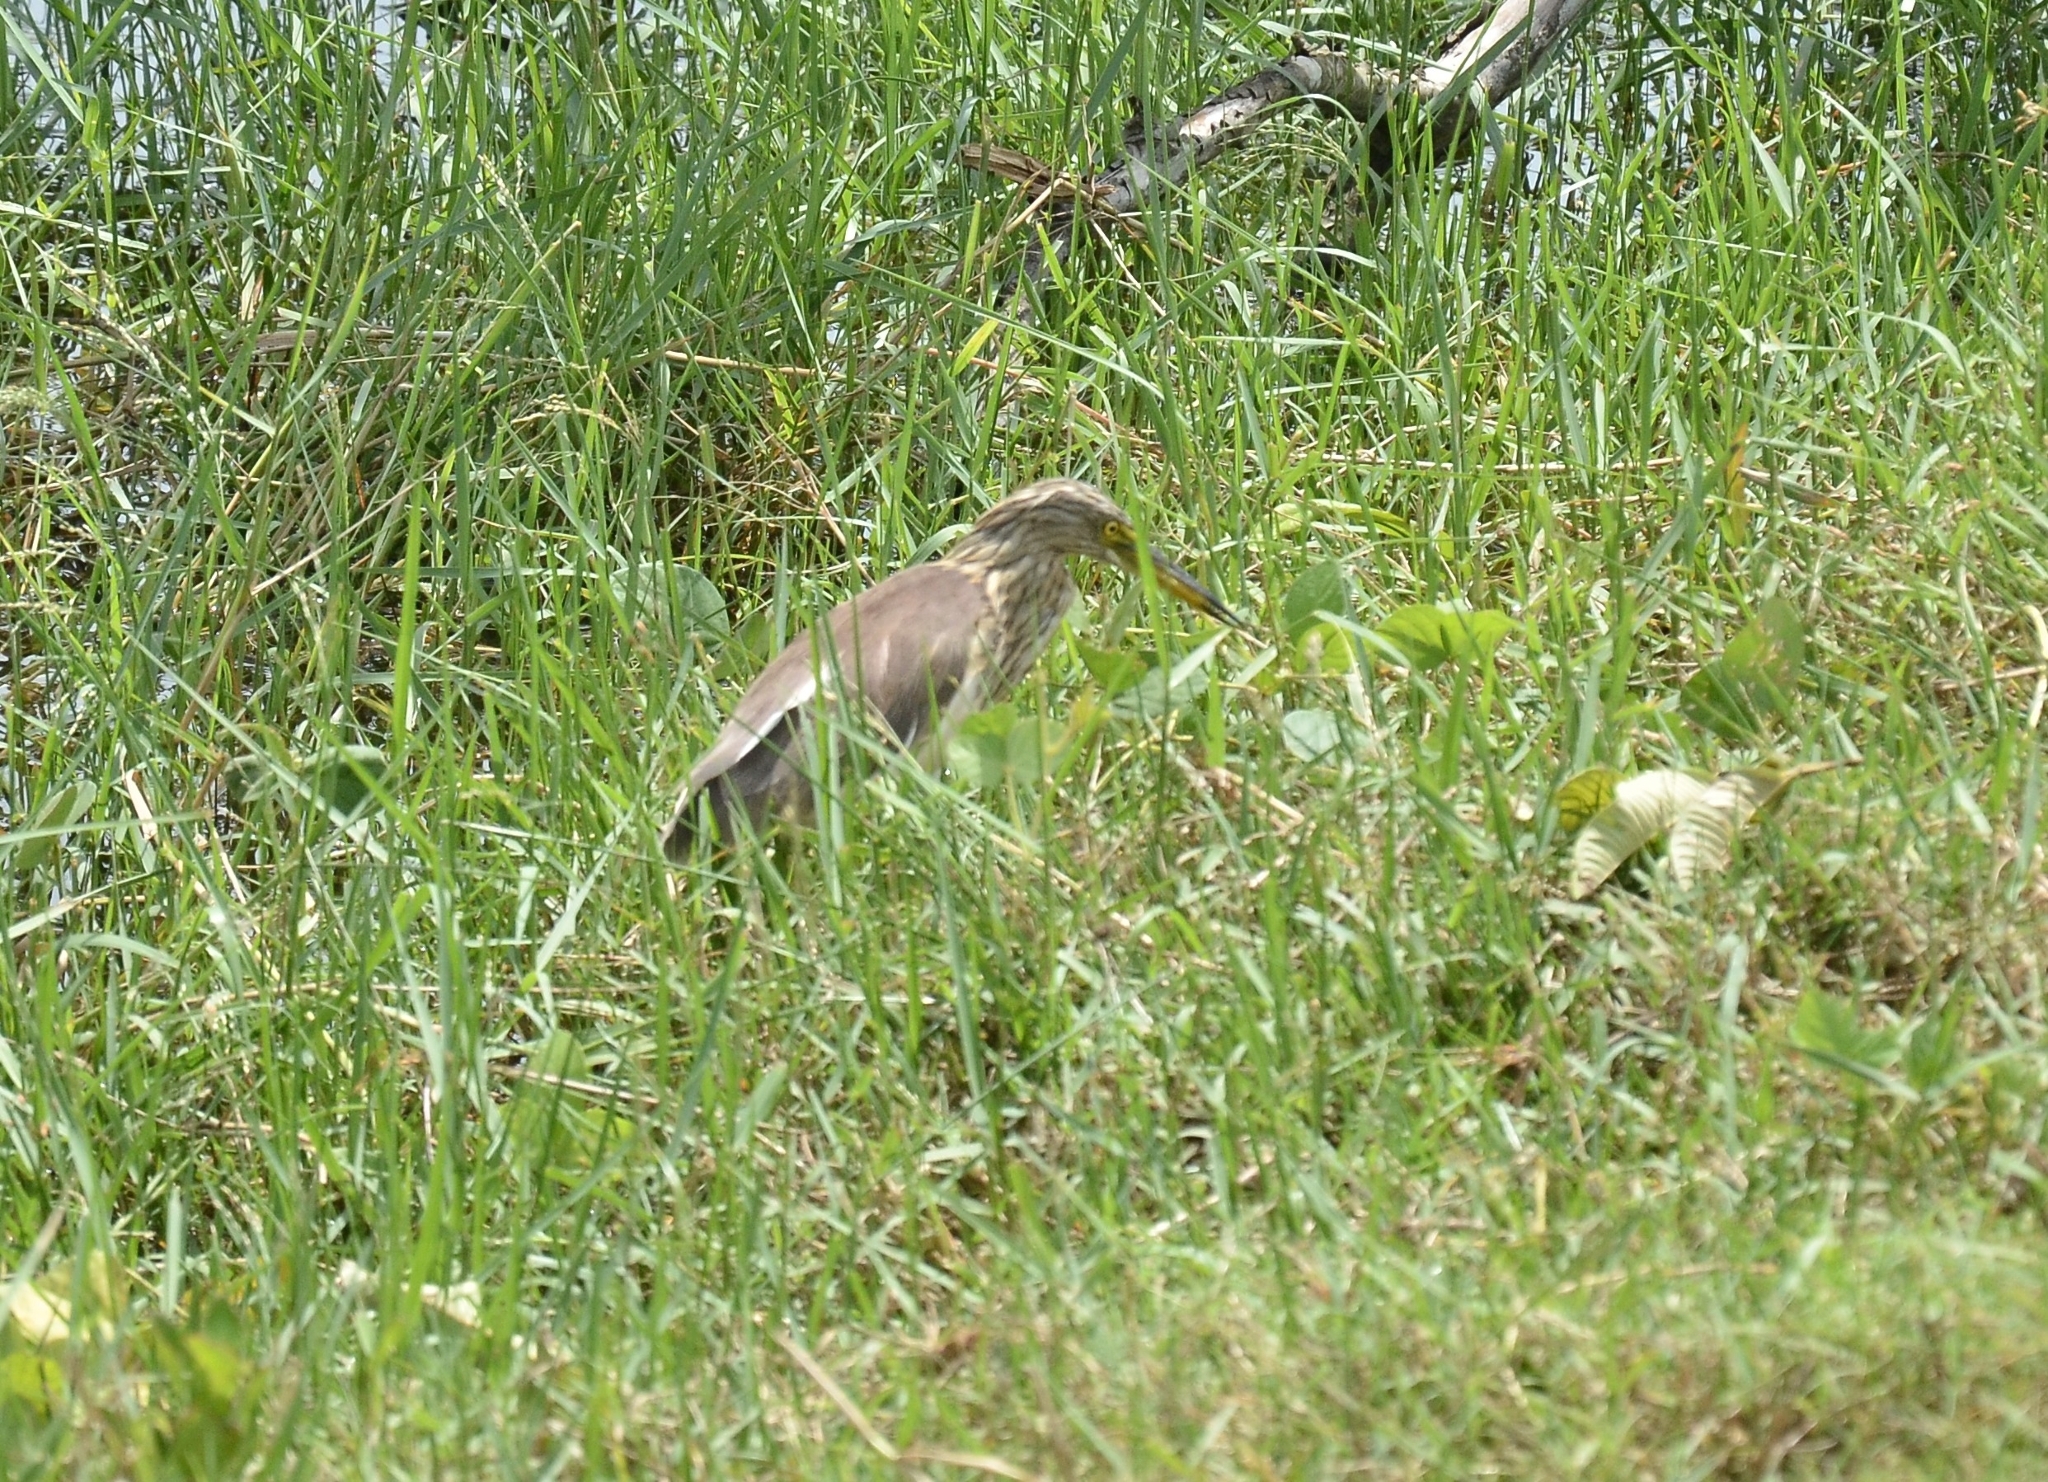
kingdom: Animalia
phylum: Chordata
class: Aves
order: Pelecaniformes
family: Ardeidae
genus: Ardeola
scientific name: Ardeola grayii
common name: Indian pond heron
